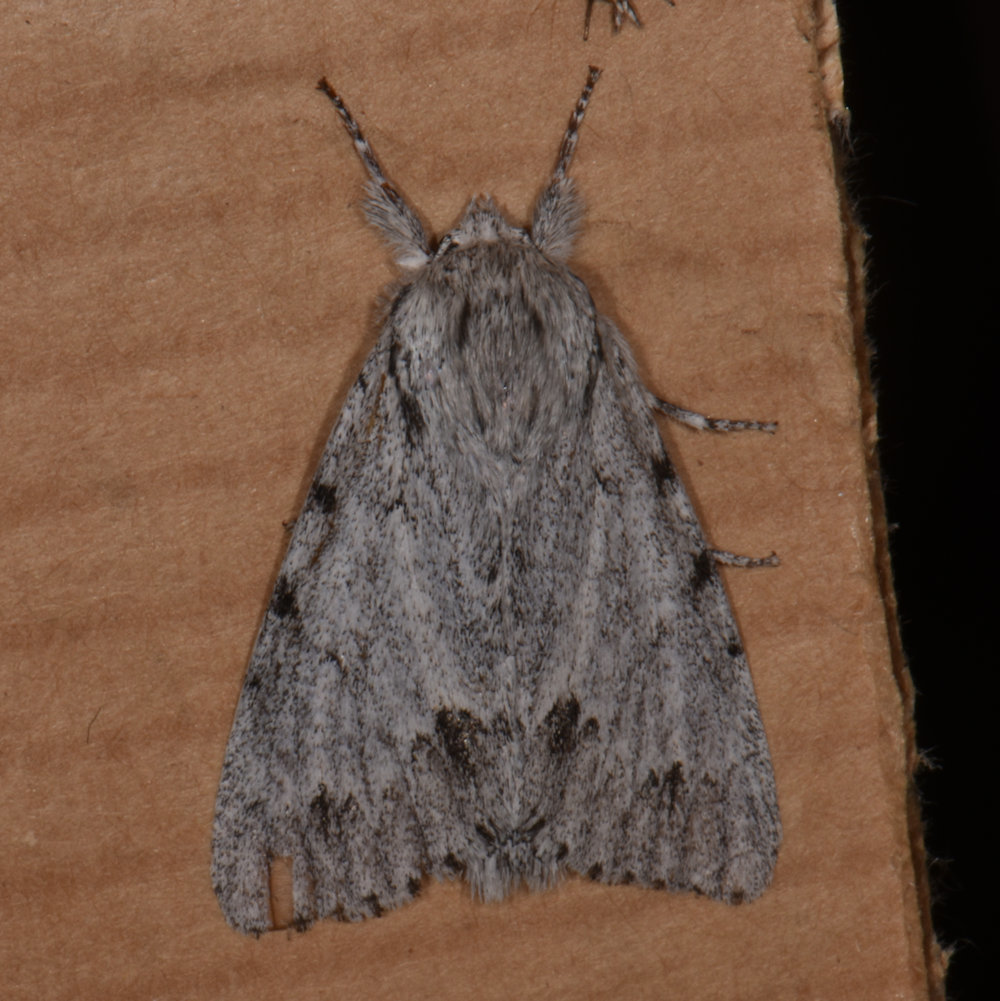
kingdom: Animalia
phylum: Arthropoda
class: Insecta
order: Lepidoptera
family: Noctuidae
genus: Acronicta
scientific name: Acronicta lepusculina
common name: Cottonwood dagger
